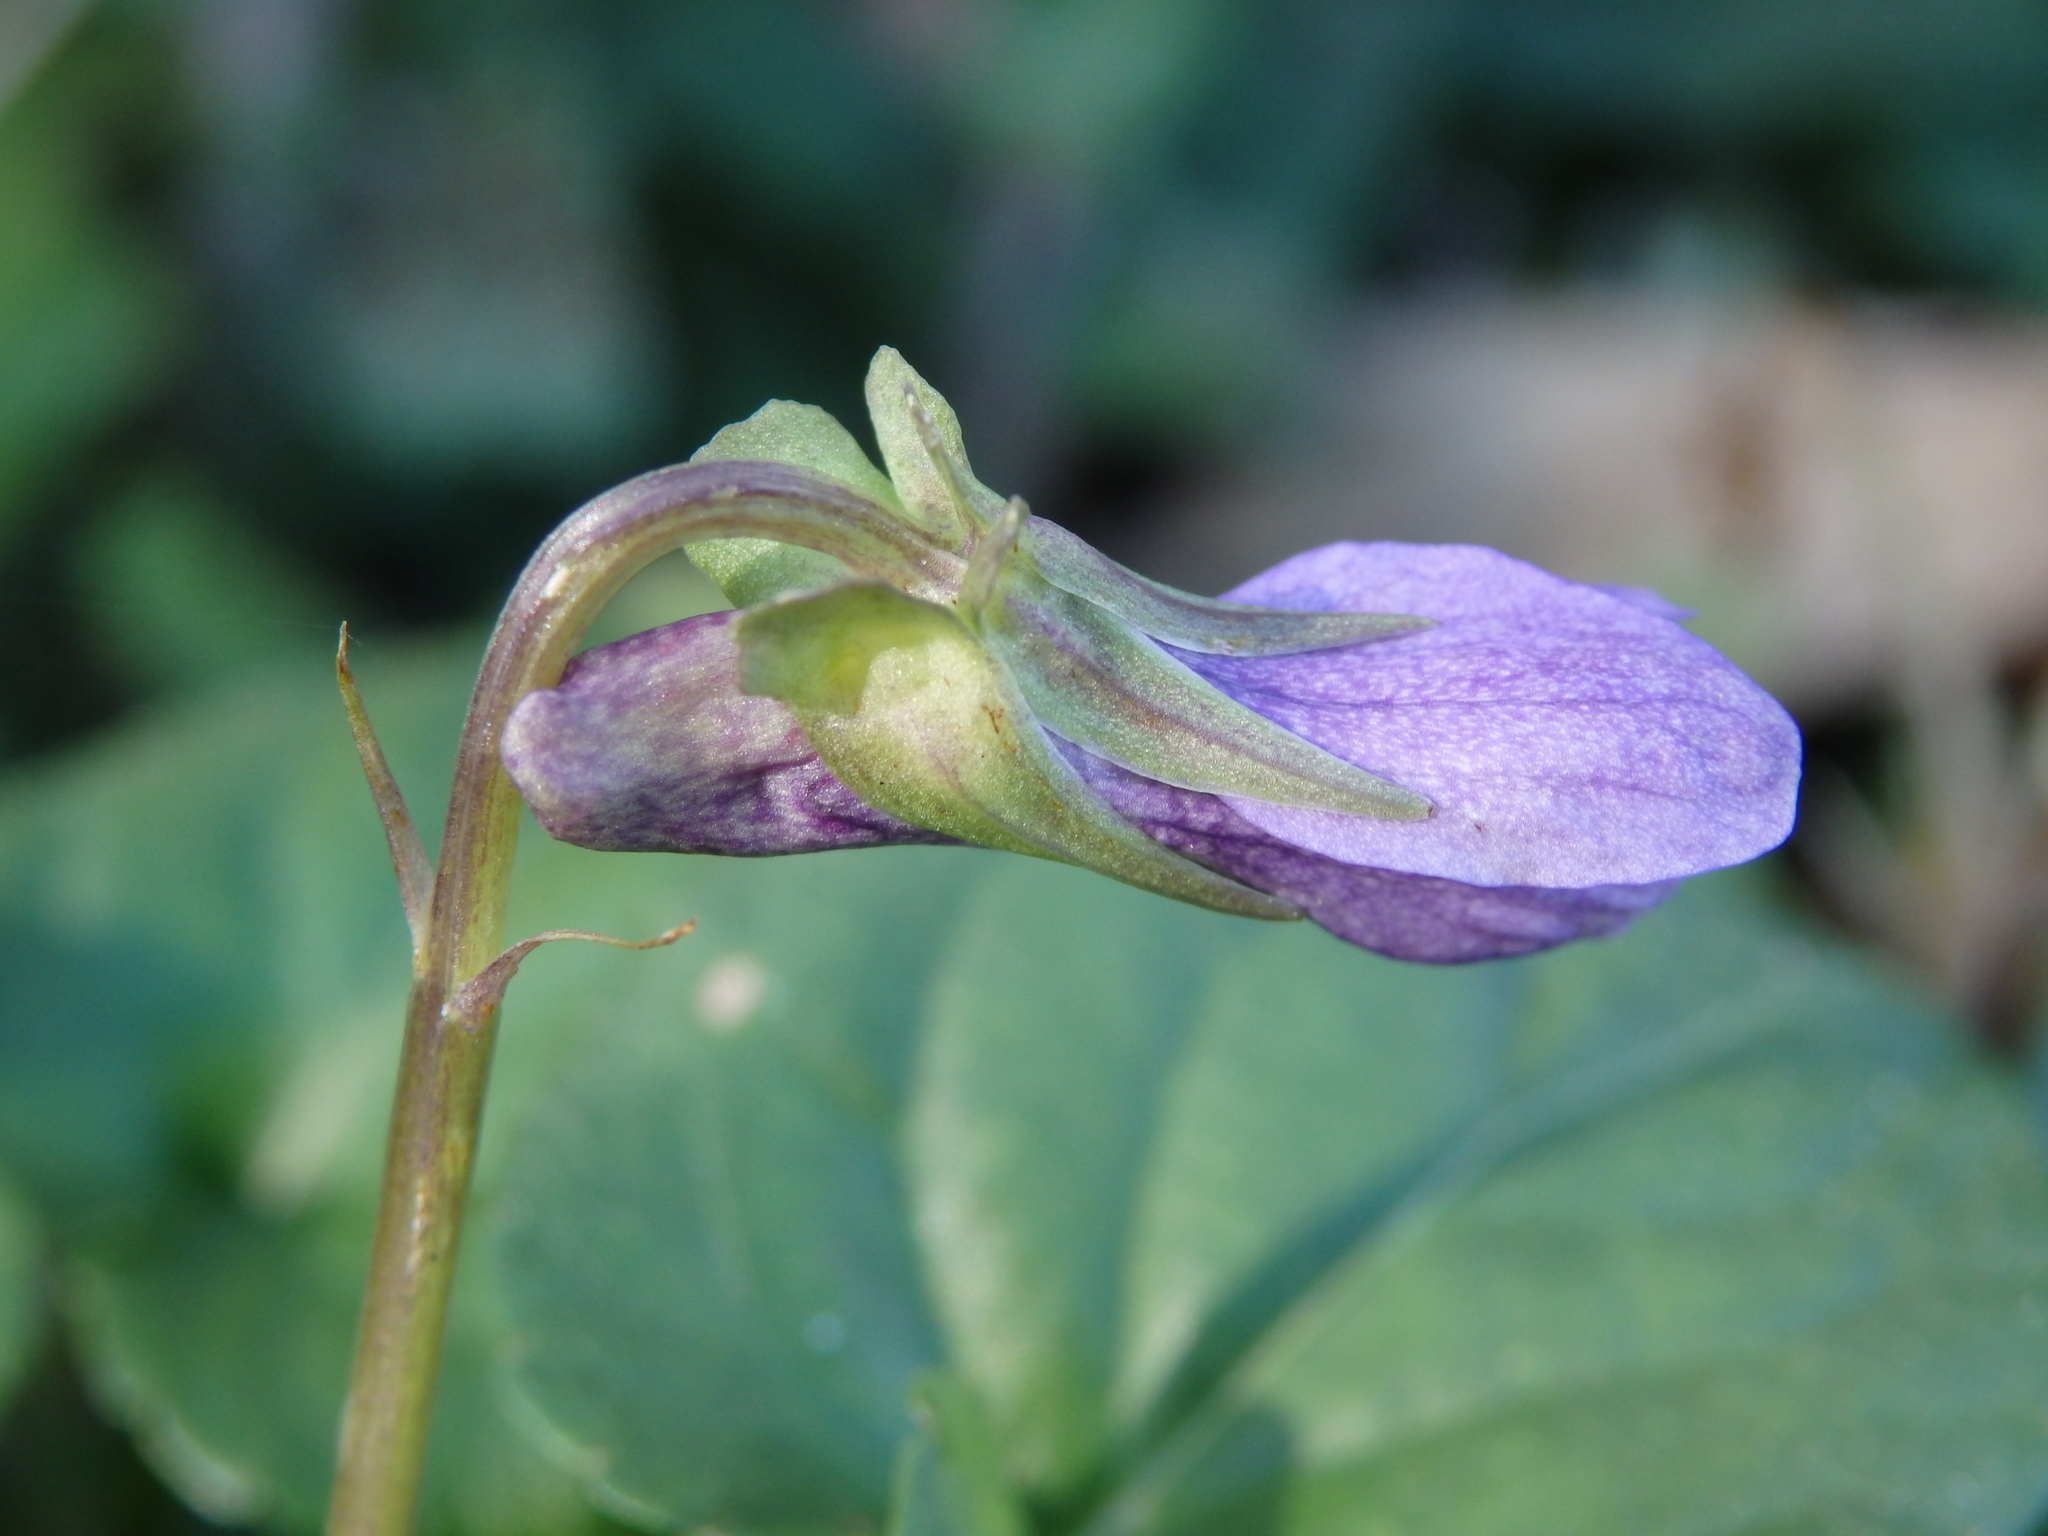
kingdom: Plantae
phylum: Tracheophyta
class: Magnoliopsida
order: Malpighiales
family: Violaceae
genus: Viola
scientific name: Viola riviniana
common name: Common dog-violet
